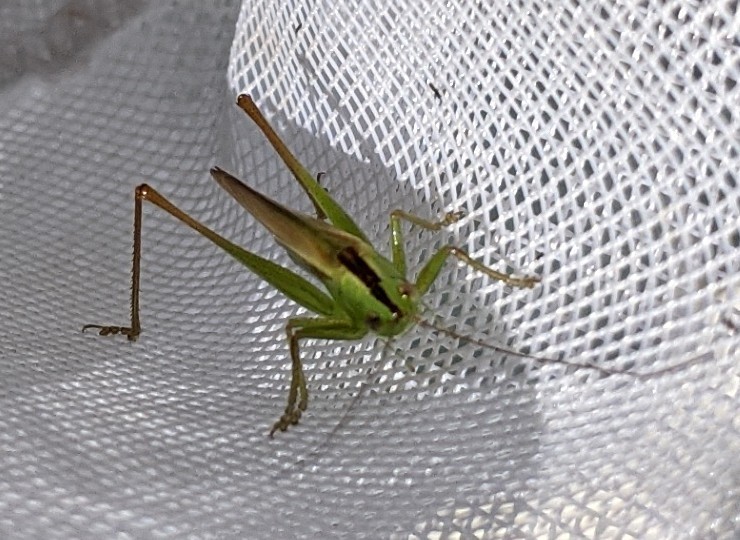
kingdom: Animalia
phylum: Arthropoda
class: Insecta
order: Orthoptera
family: Tettigoniidae
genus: Conocephalus
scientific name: Conocephalus fasciatus
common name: Slender meadow katydid
